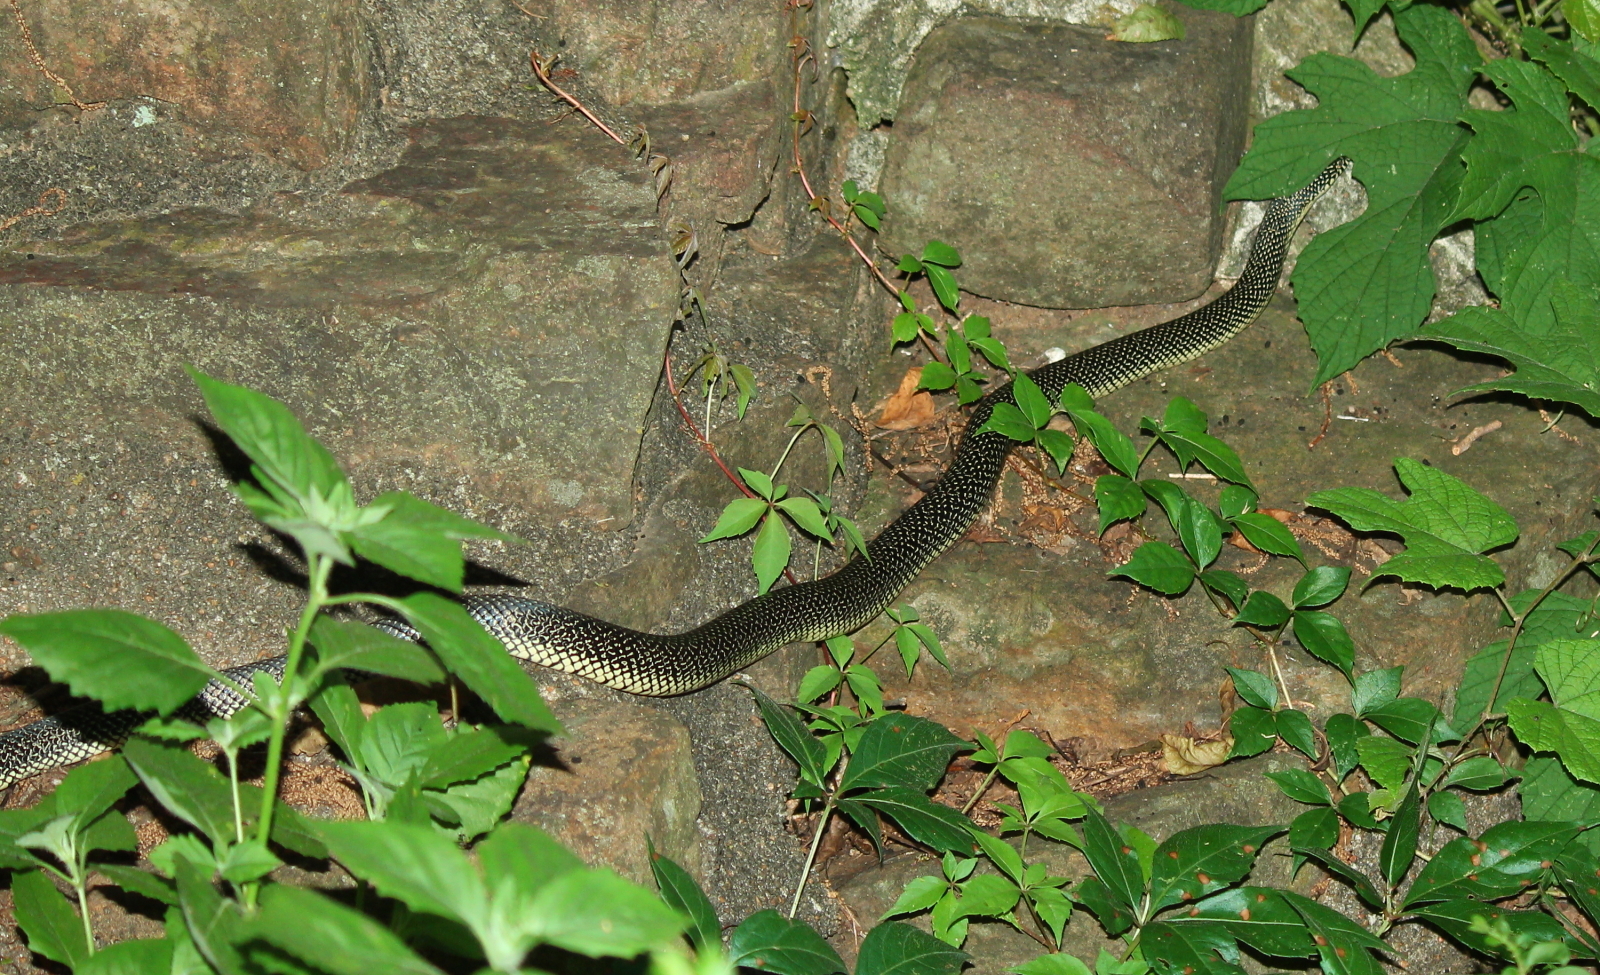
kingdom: Animalia
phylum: Chordata
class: Squamata
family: Colubridae
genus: Lampropeltis
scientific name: Lampropeltis holbrooki
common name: Speckled kingsnake
